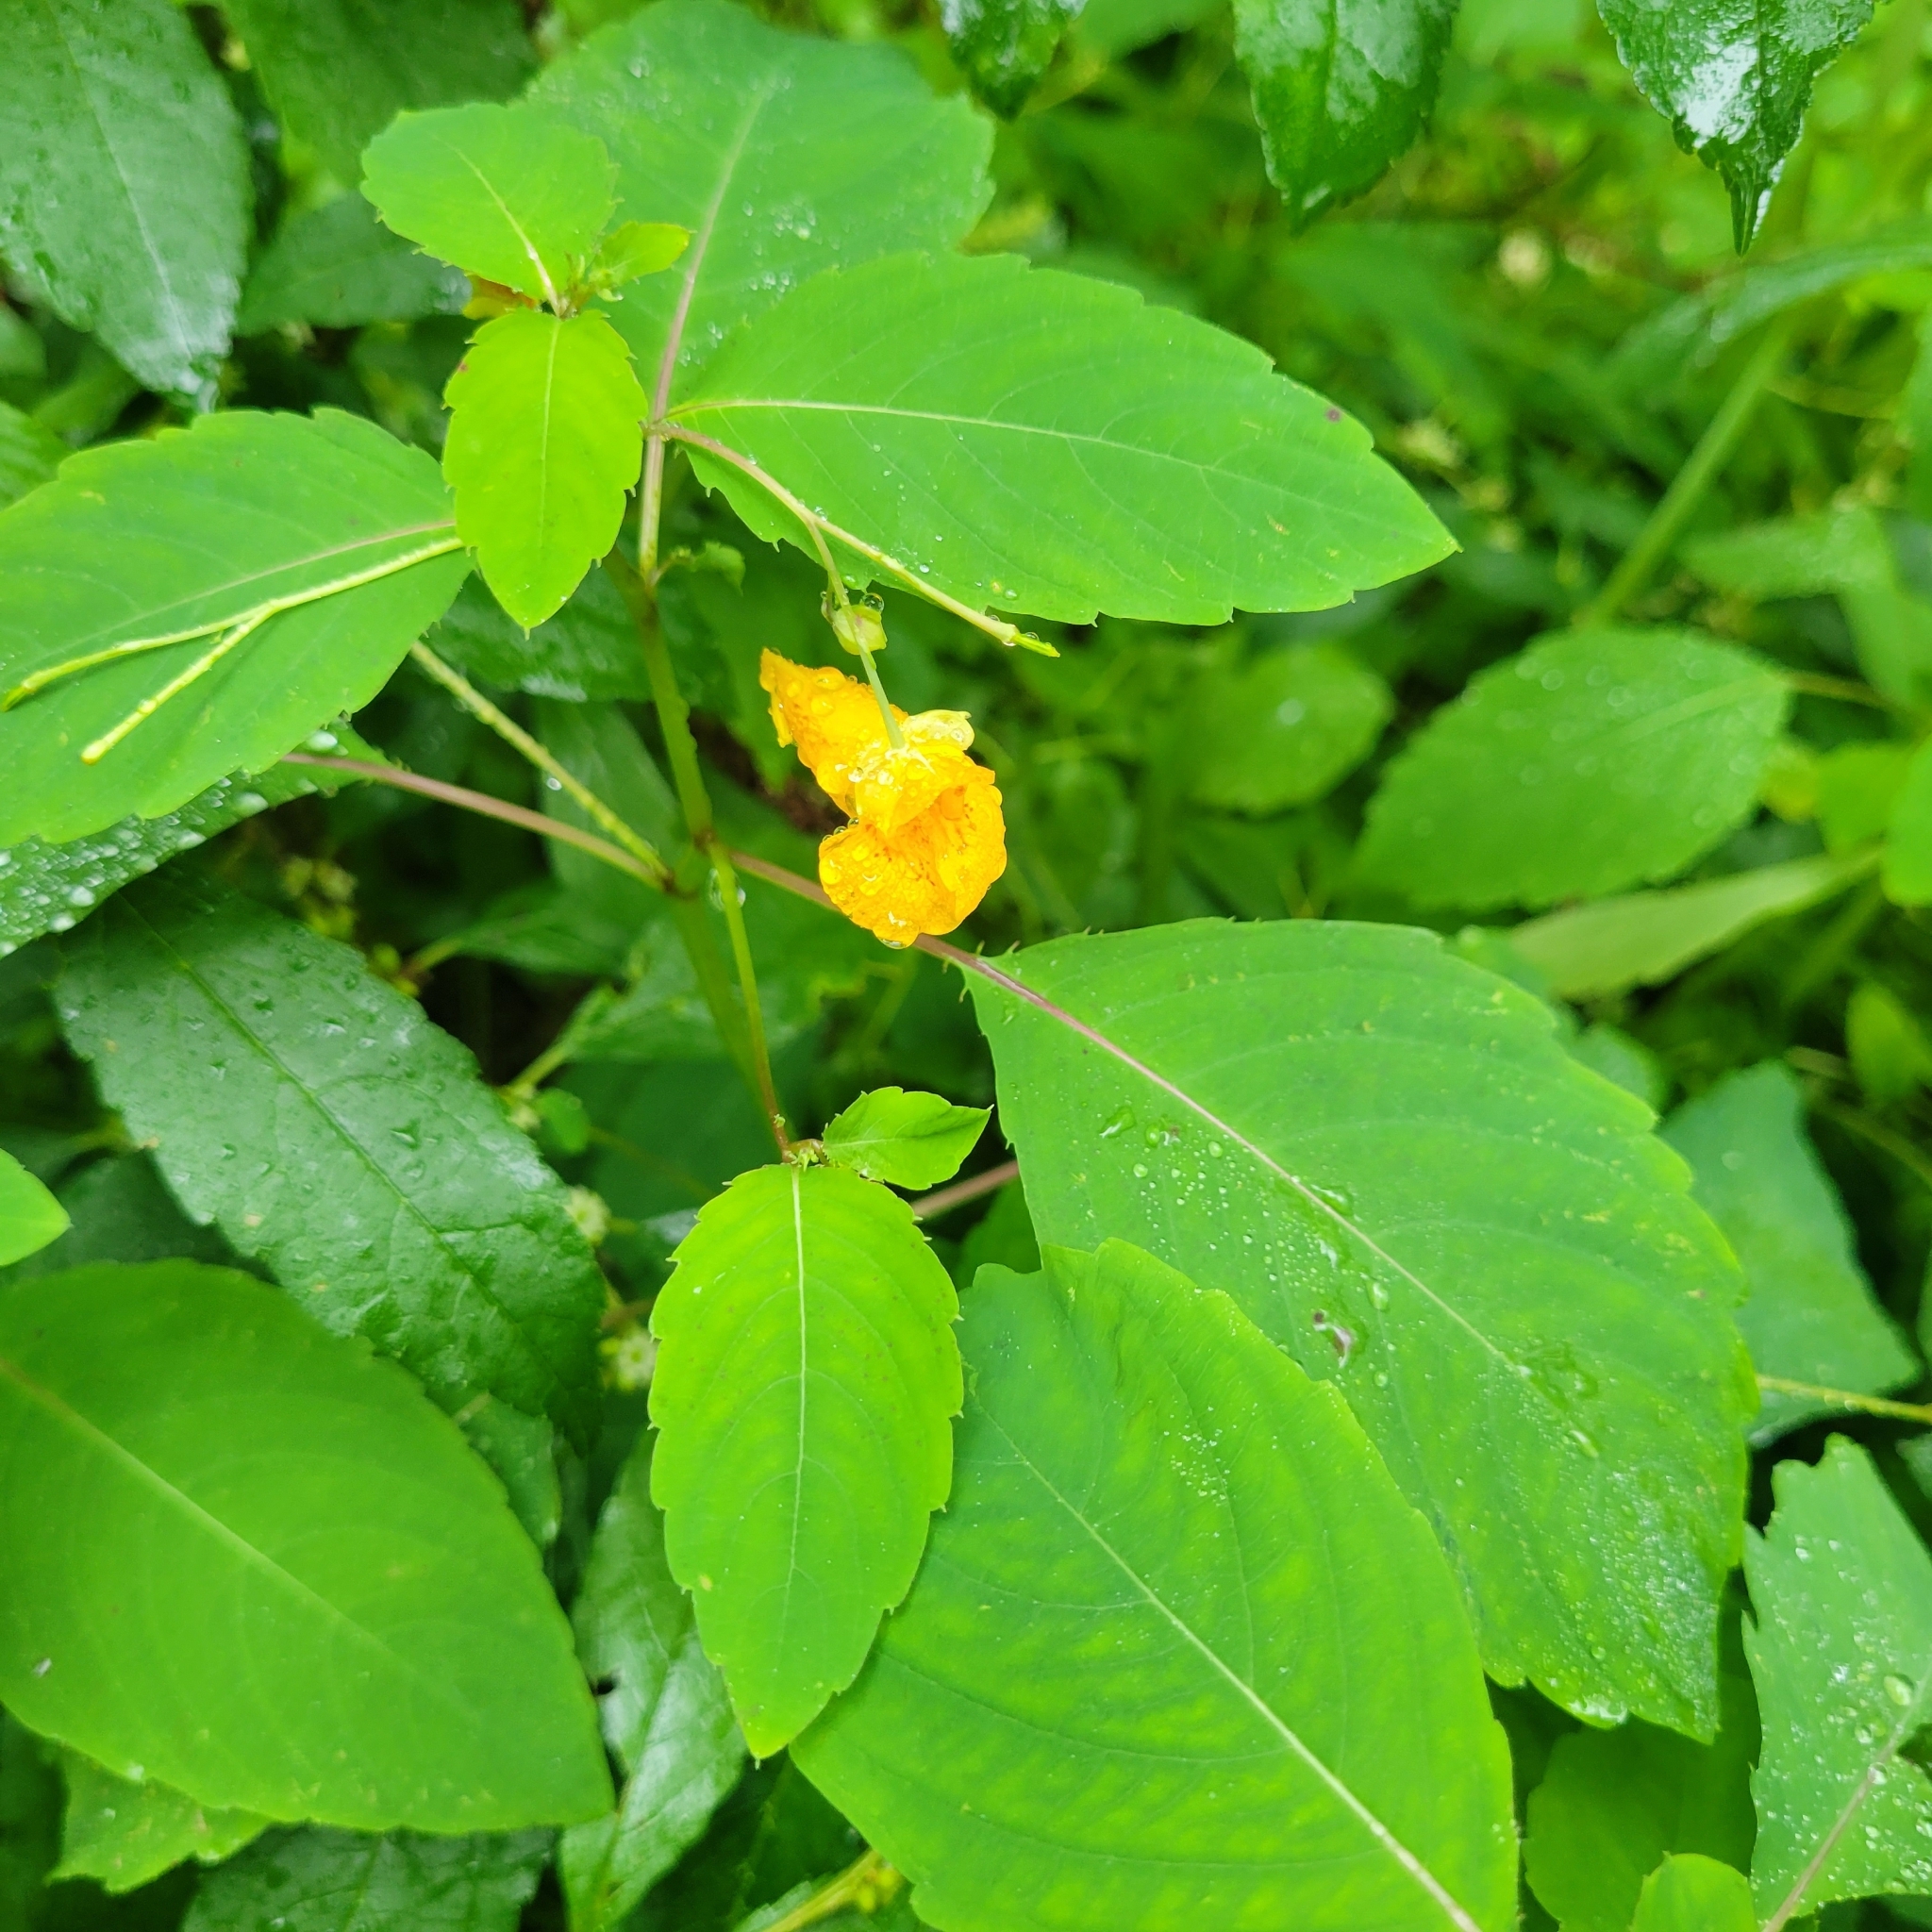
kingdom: Plantae
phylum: Tracheophyta
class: Magnoliopsida
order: Ericales
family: Balsaminaceae
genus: Impatiens
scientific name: Impatiens capensis
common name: Orange balsam
